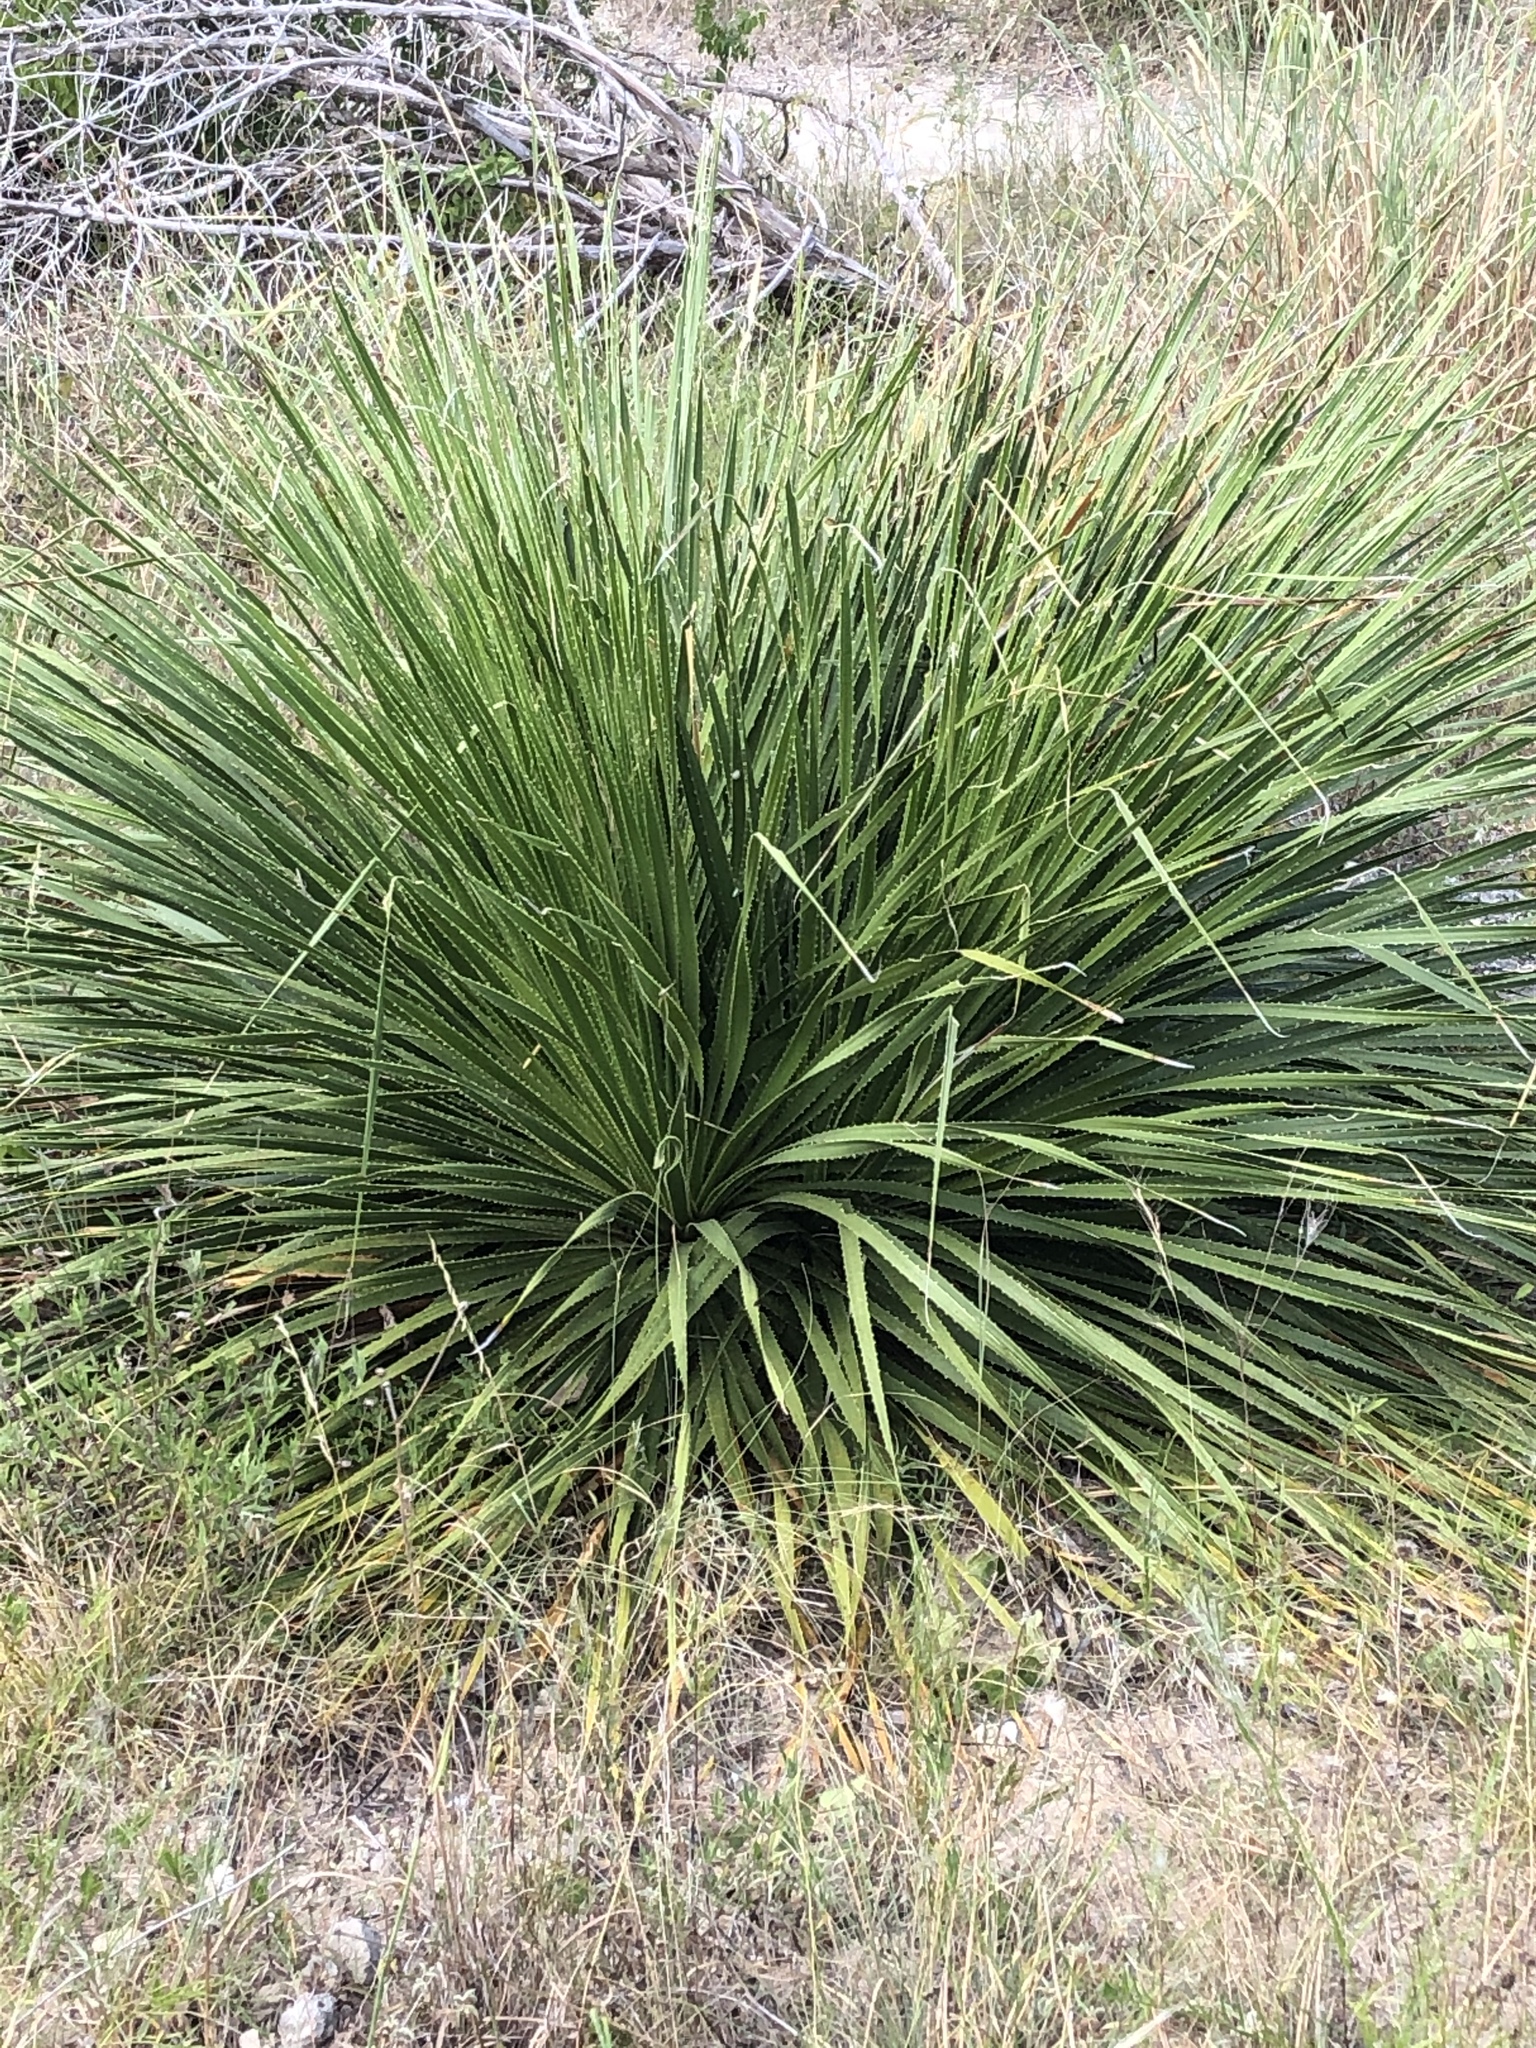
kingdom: Plantae
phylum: Tracheophyta
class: Liliopsida
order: Asparagales
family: Asparagaceae
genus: Dasylirion
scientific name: Dasylirion texanum
